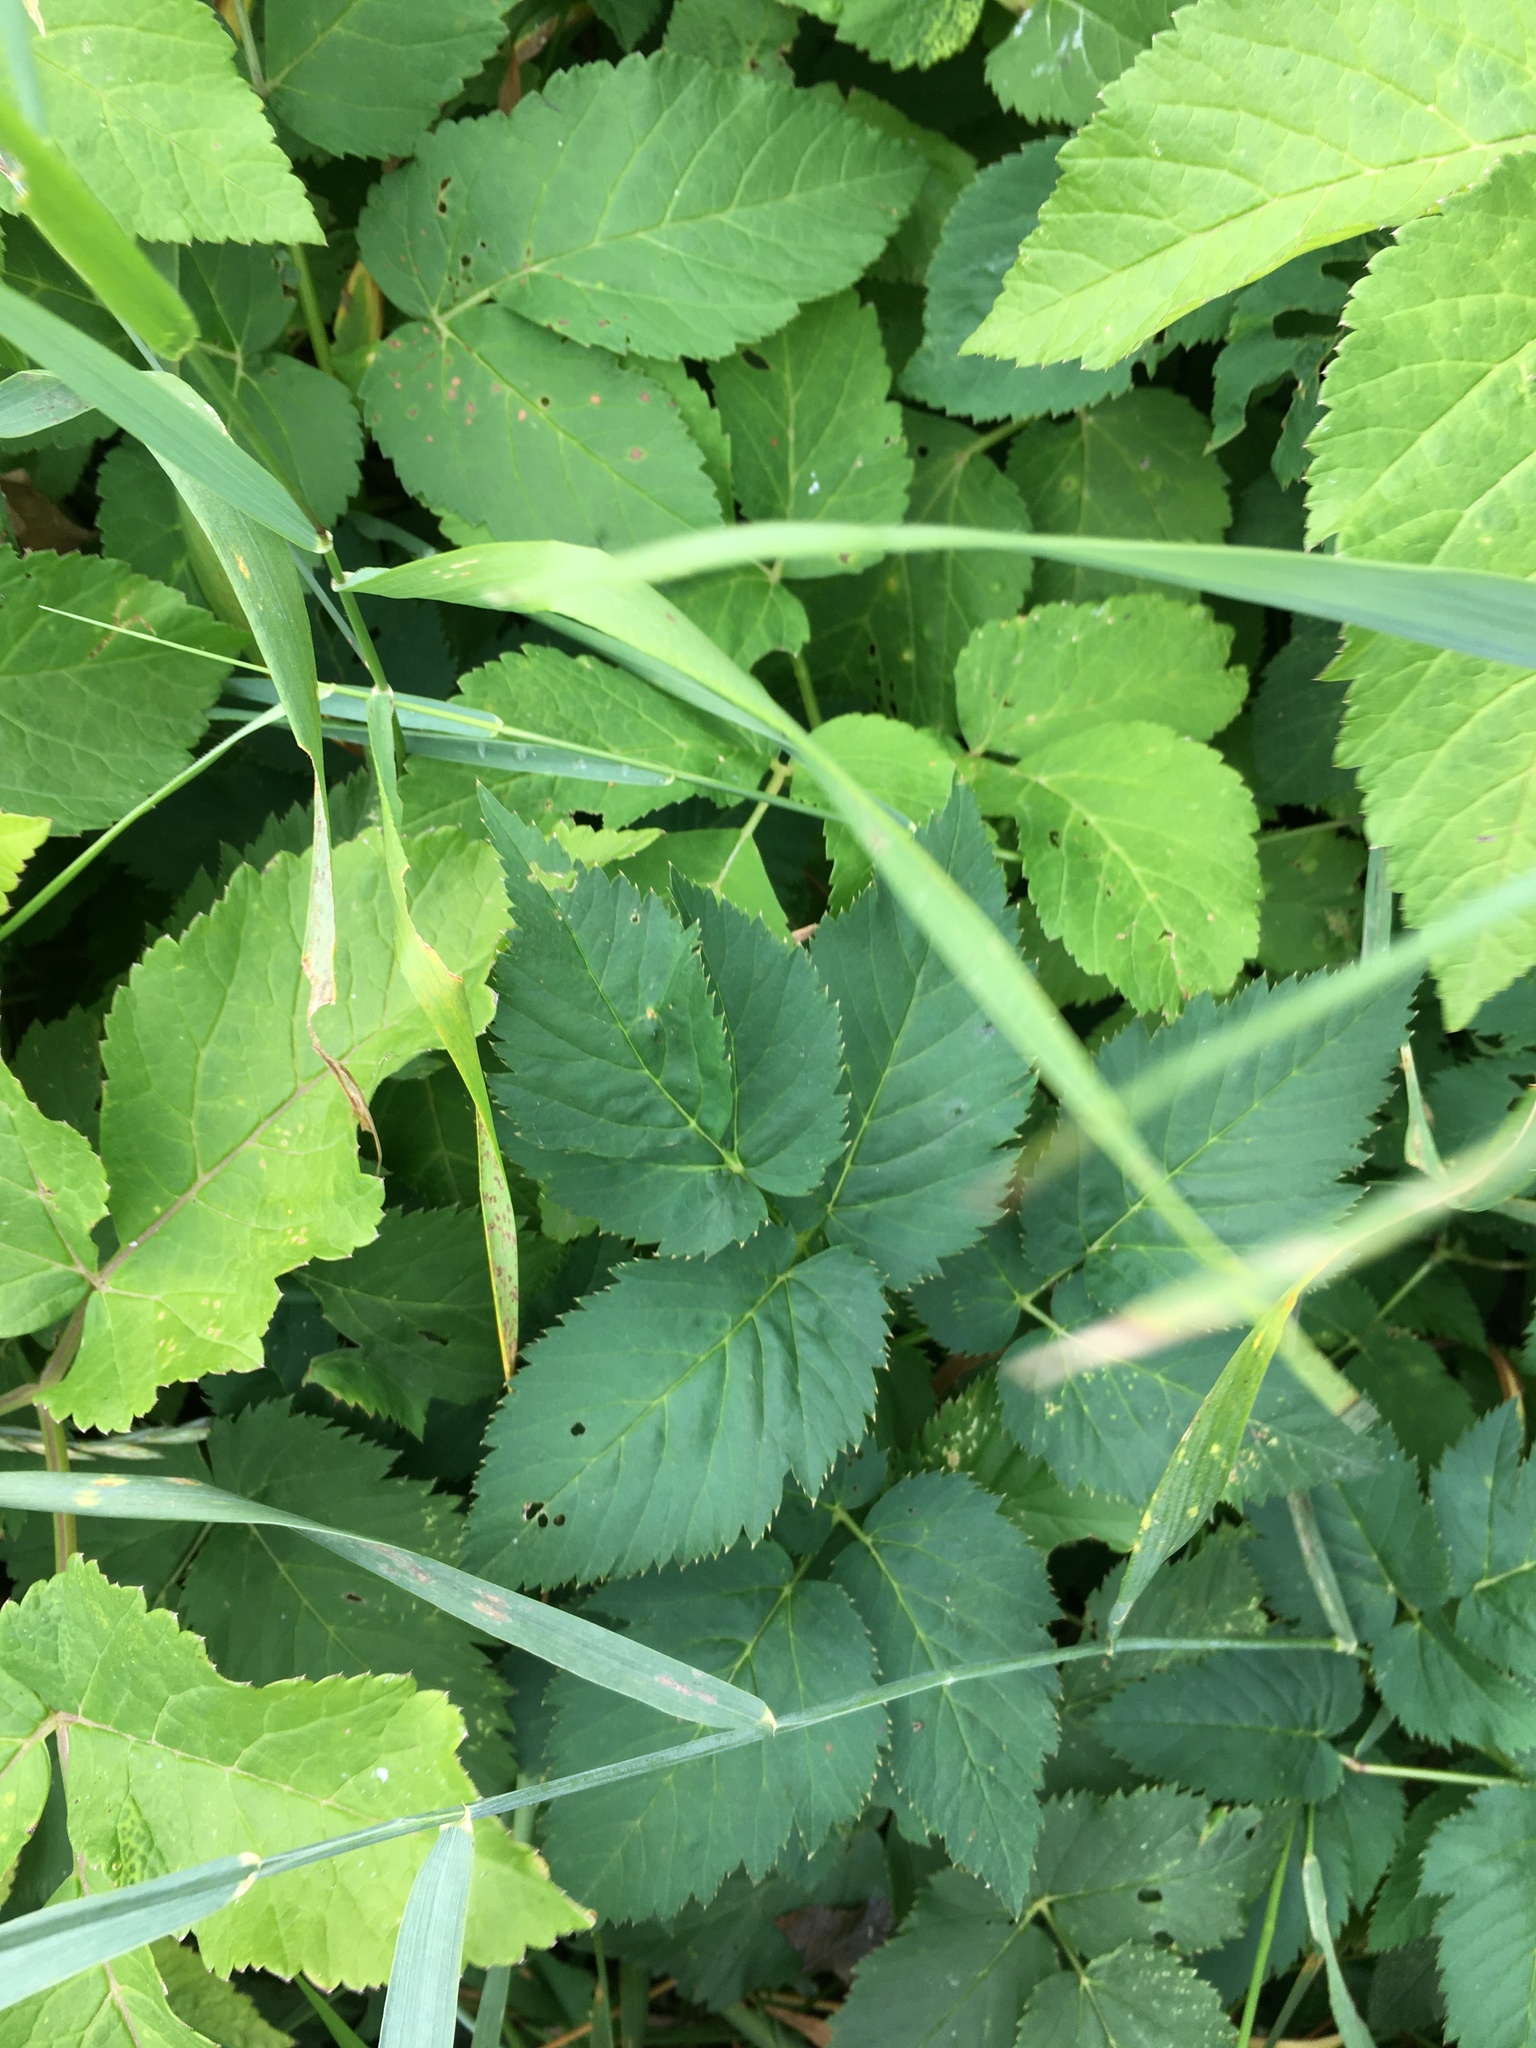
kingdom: Plantae
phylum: Tracheophyta
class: Magnoliopsida
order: Apiales
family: Apiaceae
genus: Aegopodium
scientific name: Aegopodium podagraria
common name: Ground-elder
